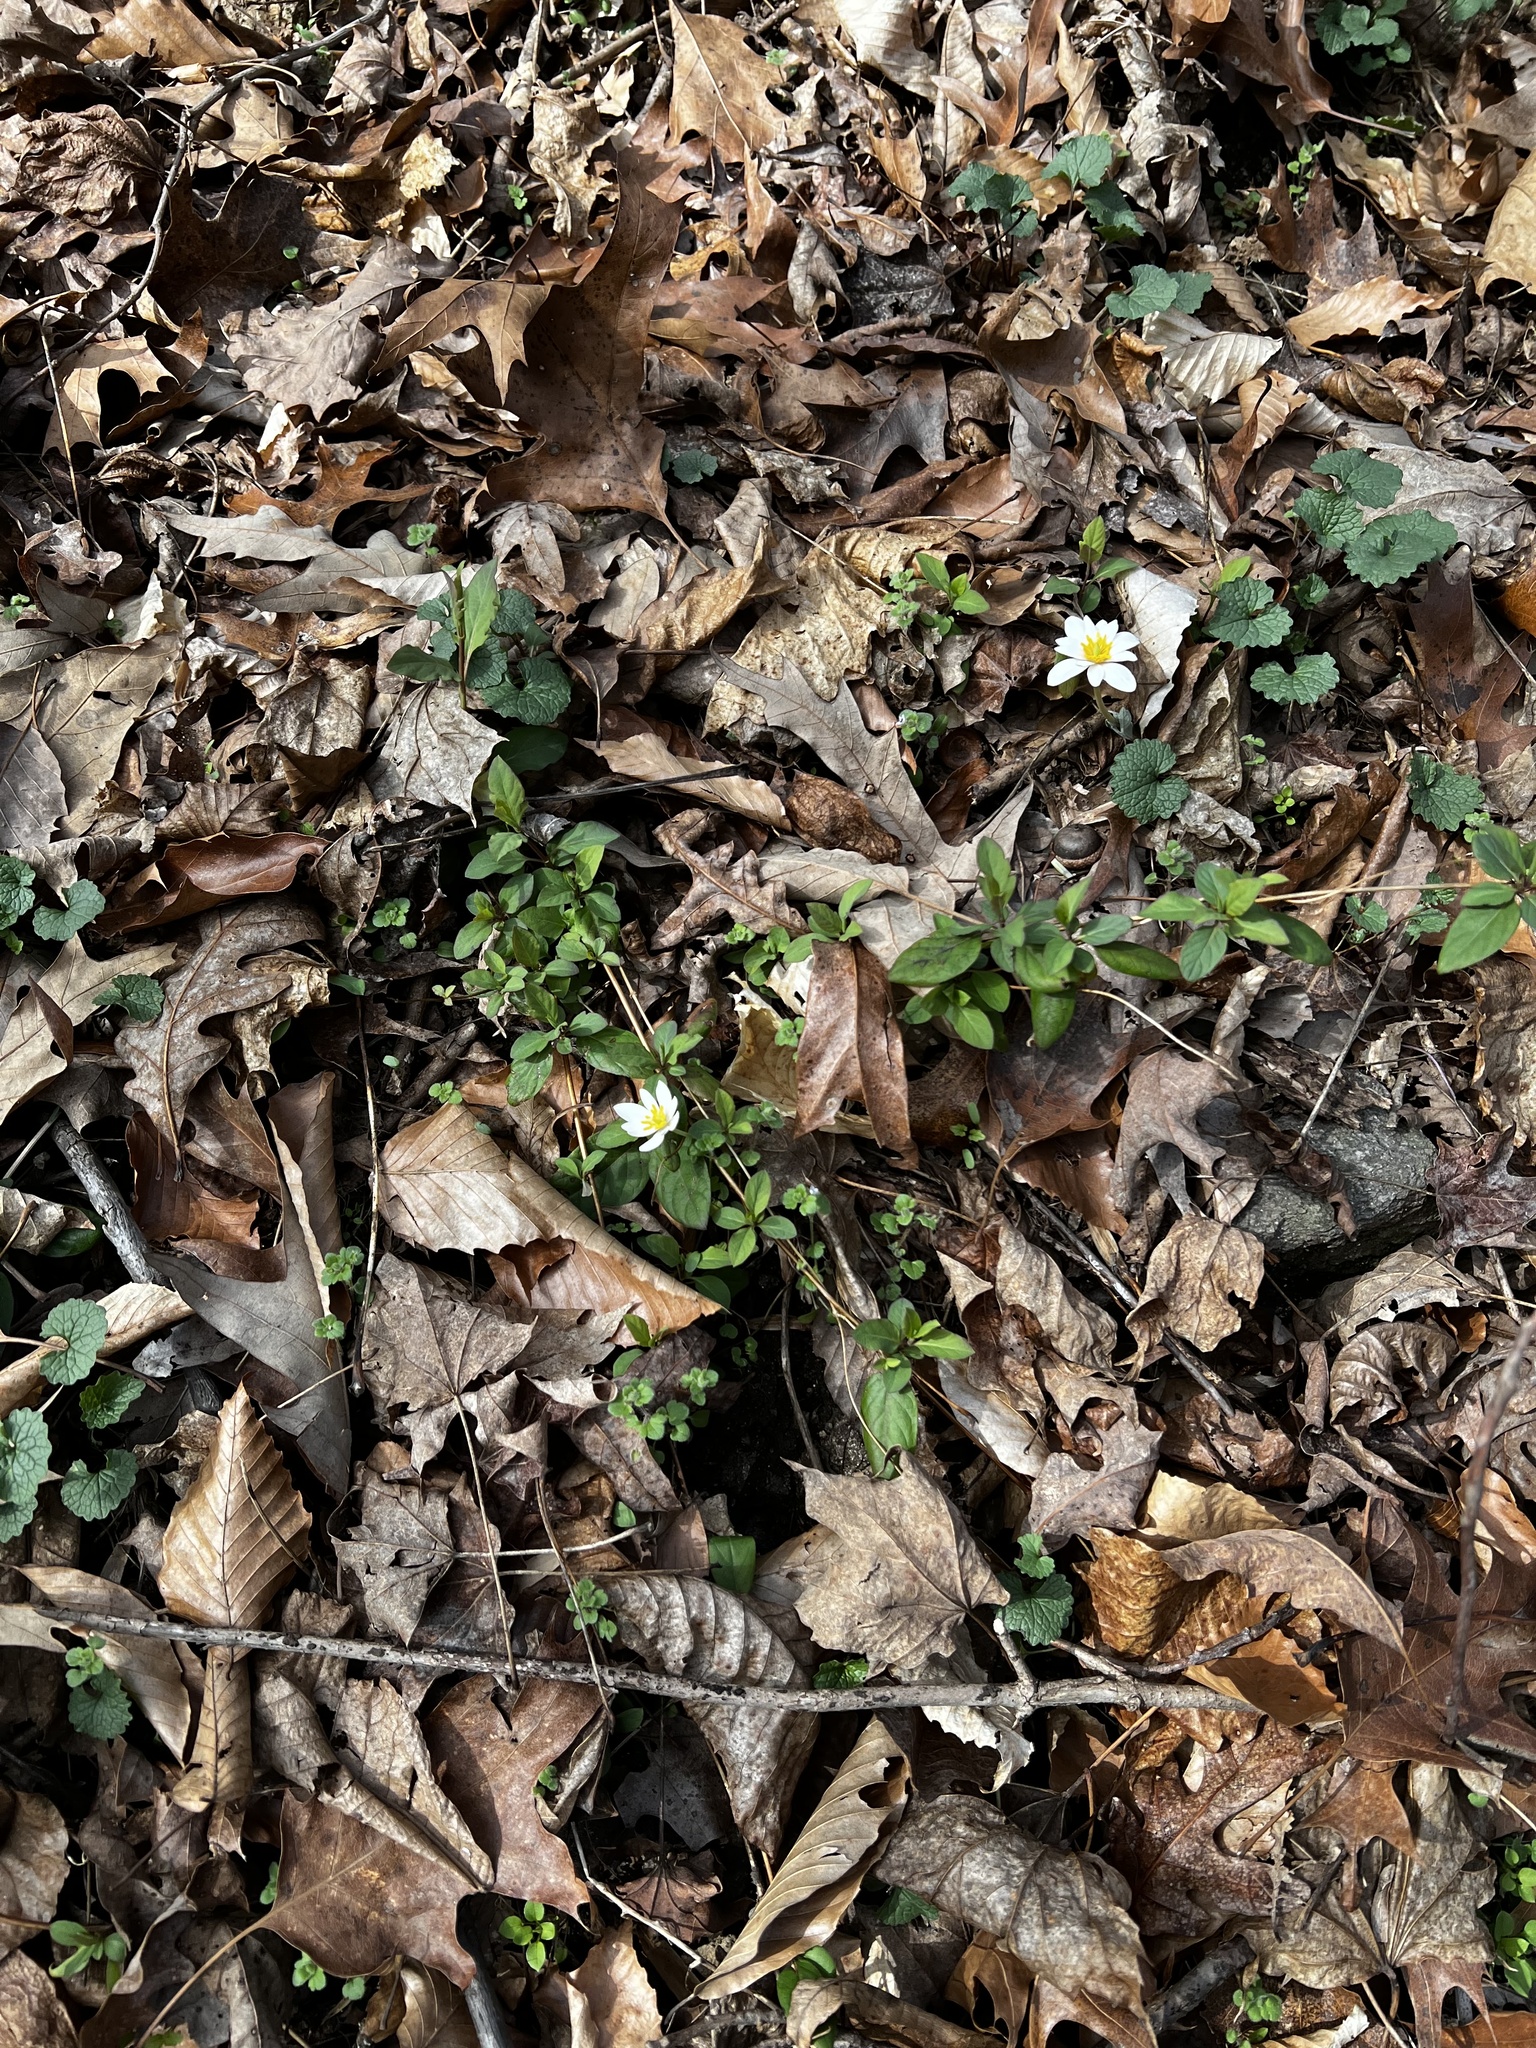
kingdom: Plantae
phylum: Tracheophyta
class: Magnoliopsida
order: Ranunculales
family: Papaveraceae
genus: Sanguinaria
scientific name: Sanguinaria canadensis
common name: Bloodroot
